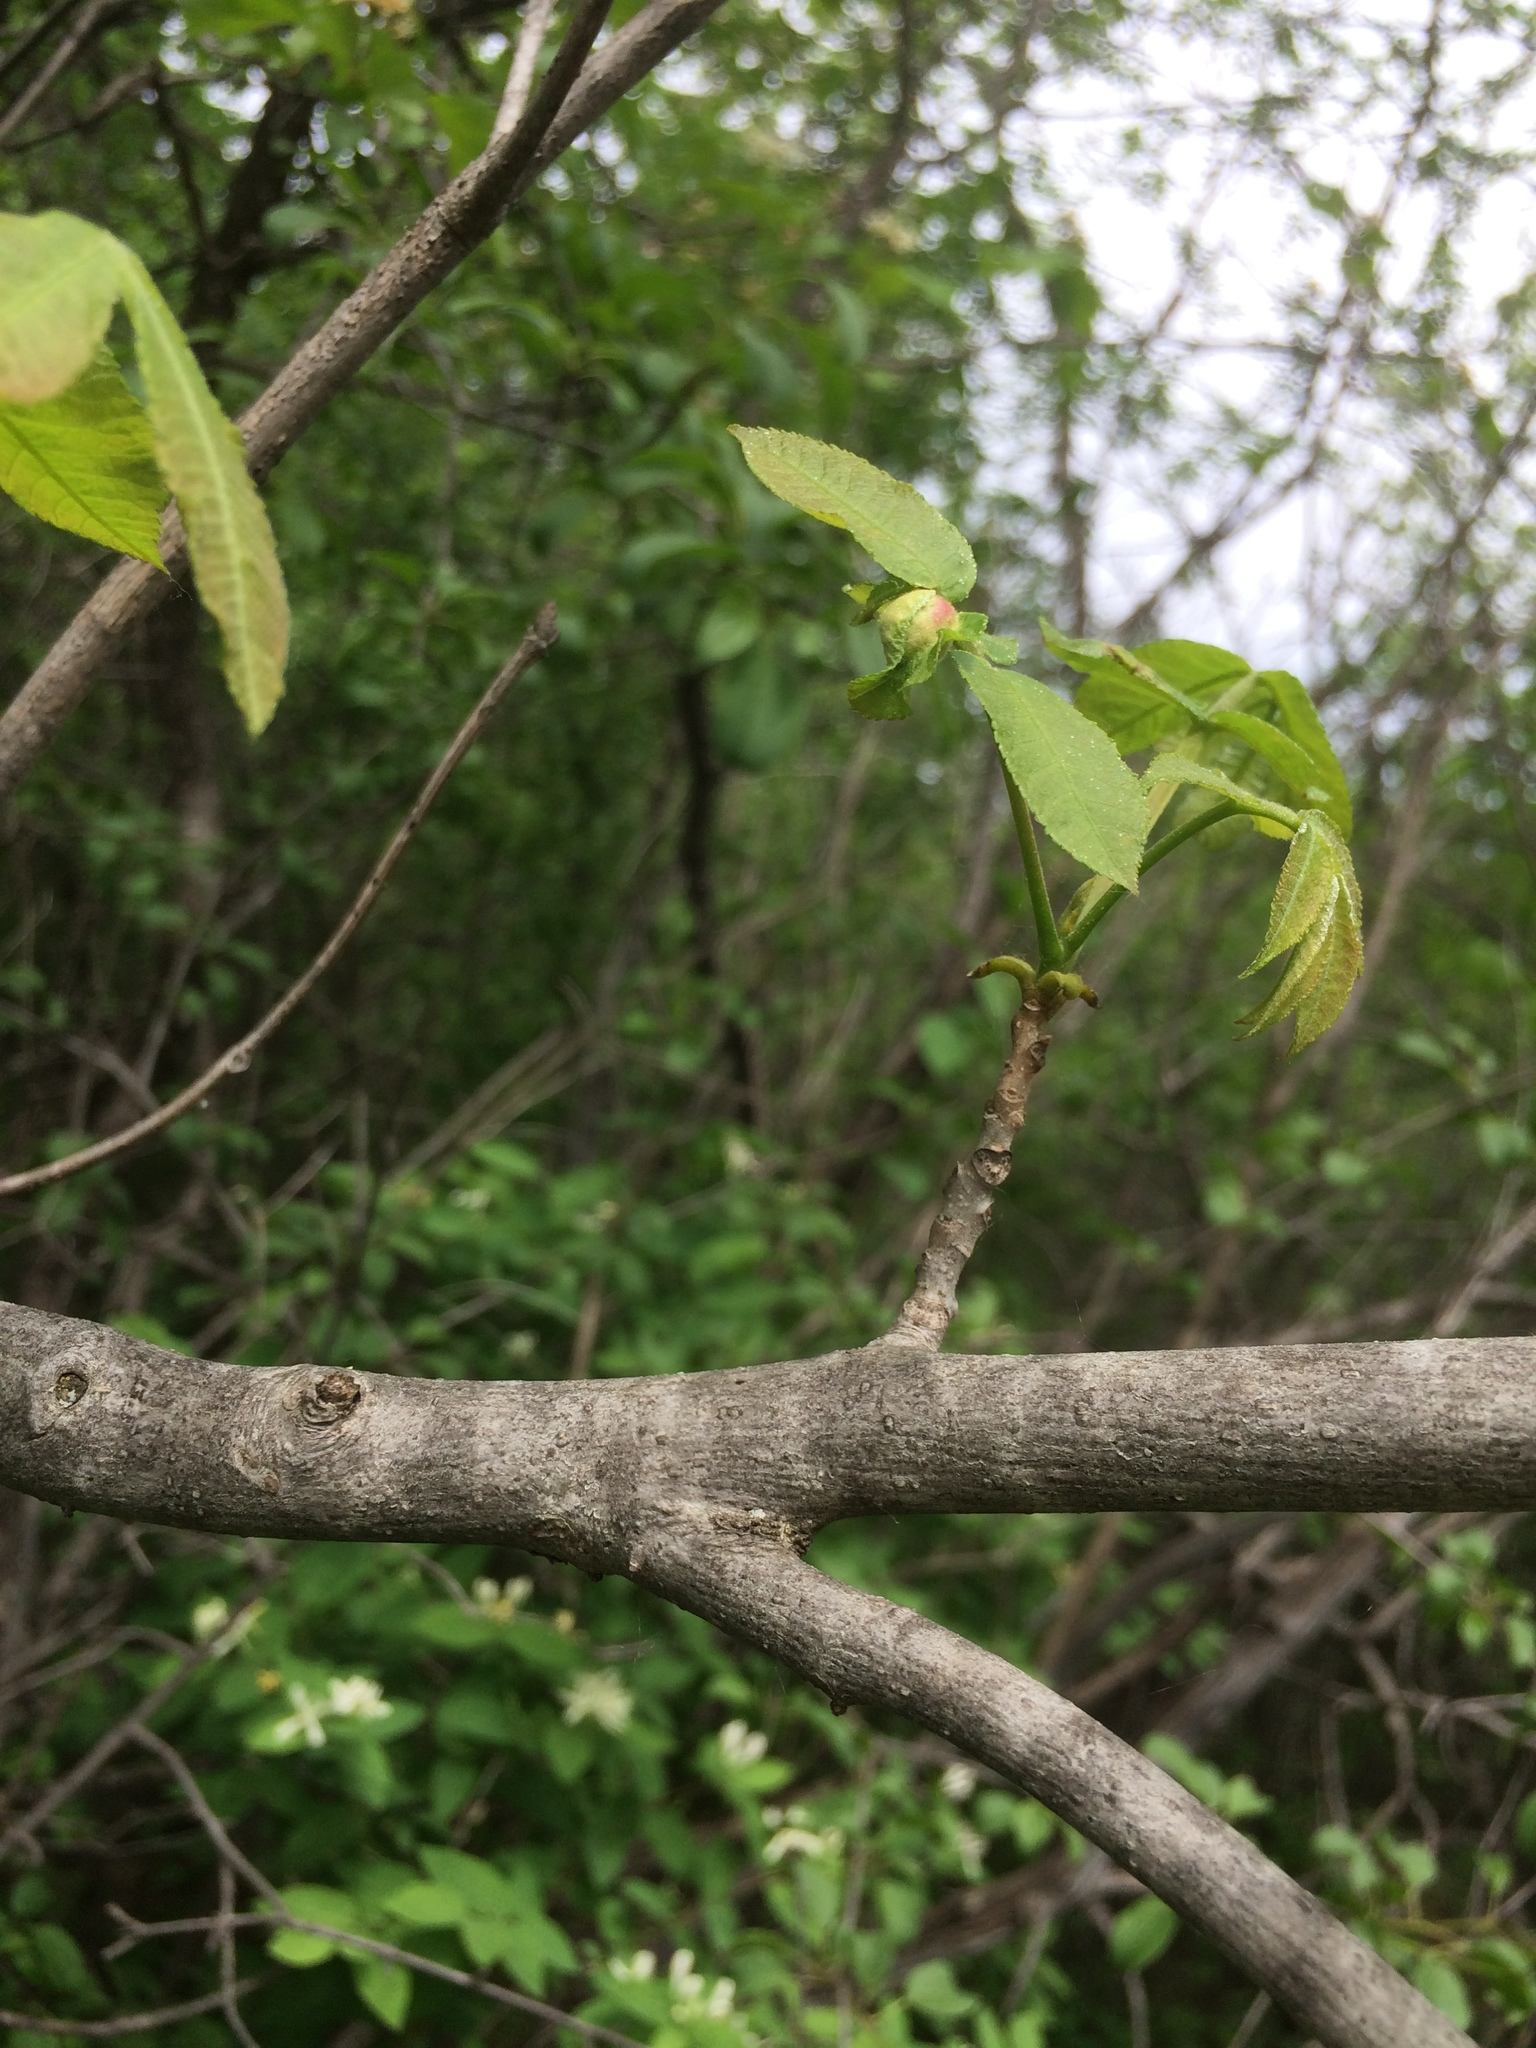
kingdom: Plantae
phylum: Tracheophyta
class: Magnoliopsida
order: Fagales
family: Juglandaceae
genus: Carya
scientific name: Carya cordiformis
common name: Bitternut hickory
